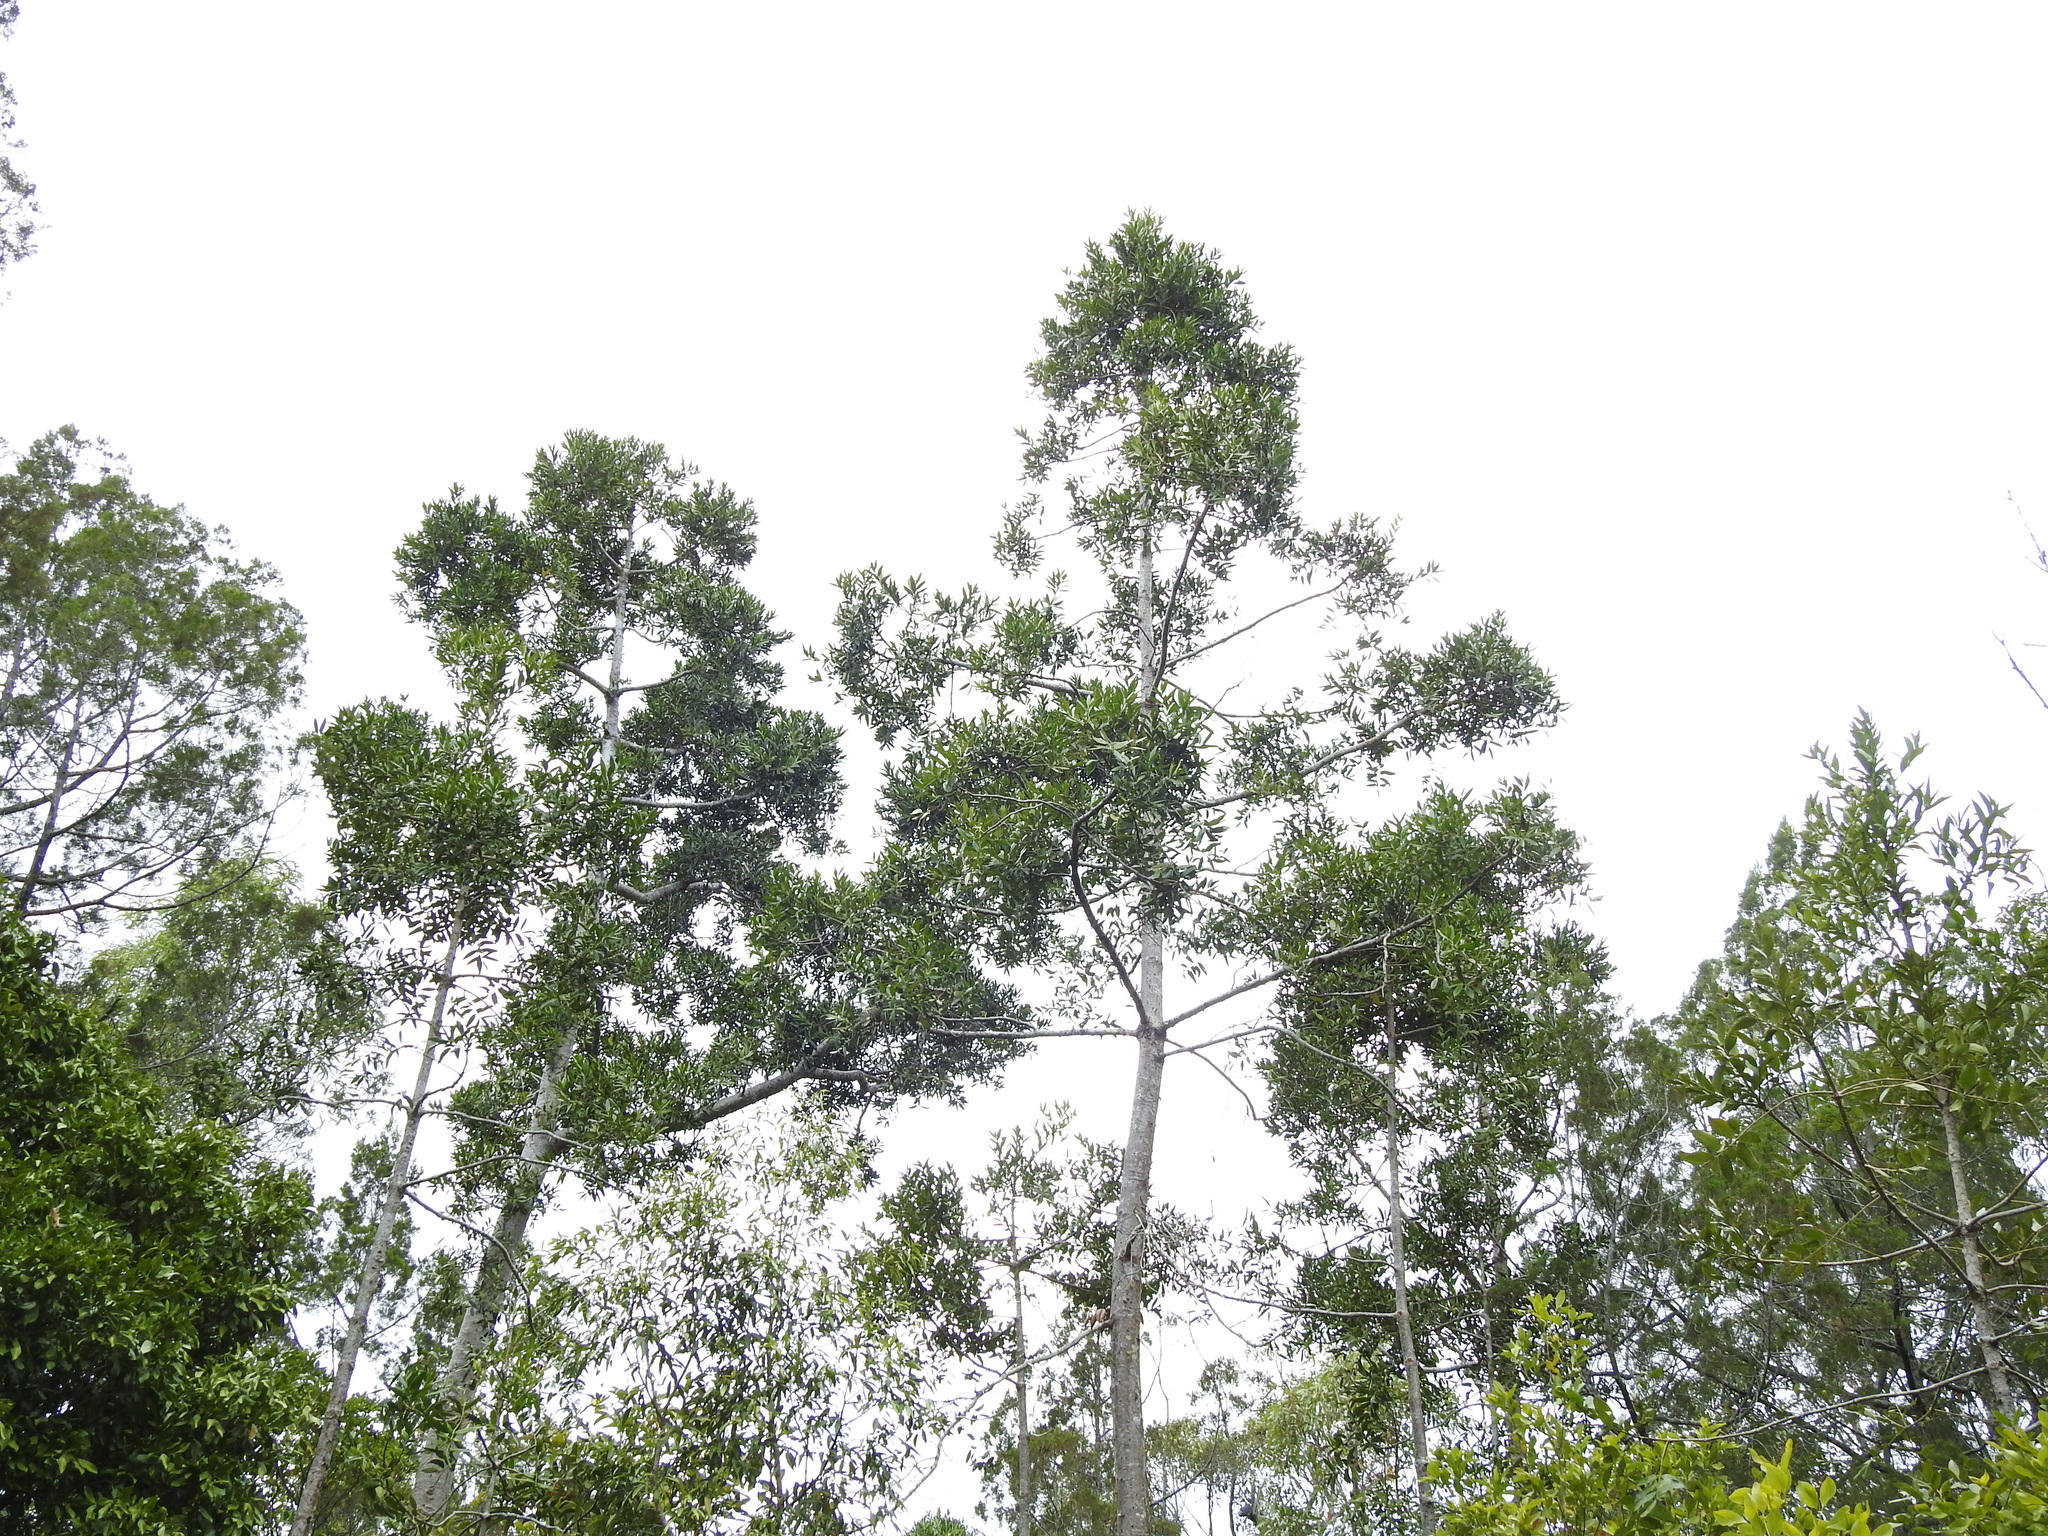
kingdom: Plantae
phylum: Tracheophyta
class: Pinopsida
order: Pinales
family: Araucariaceae
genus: Agathis
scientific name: Agathis robusta
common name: Australian-kauri
